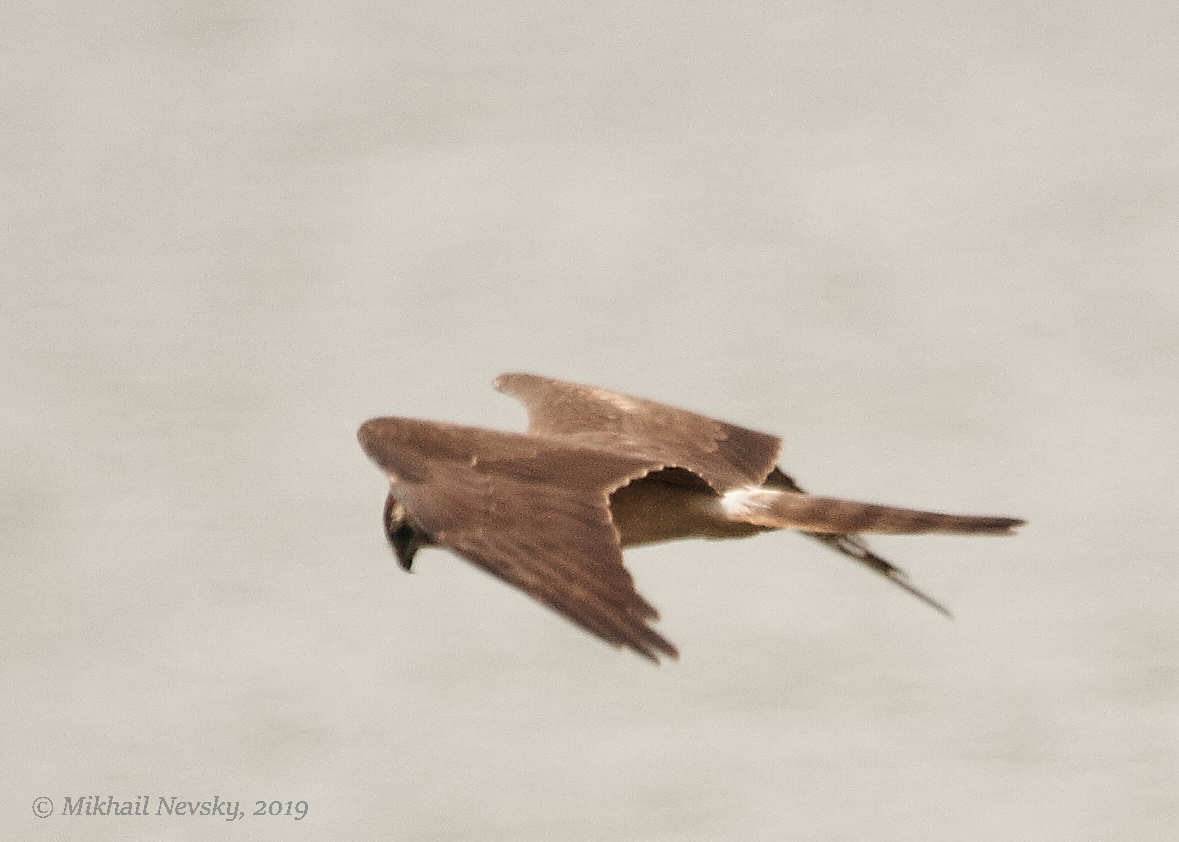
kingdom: Animalia
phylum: Chordata
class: Aves
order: Accipitriformes
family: Accipitridae
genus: Circus
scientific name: Circus macrourus
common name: Pallid harrier
